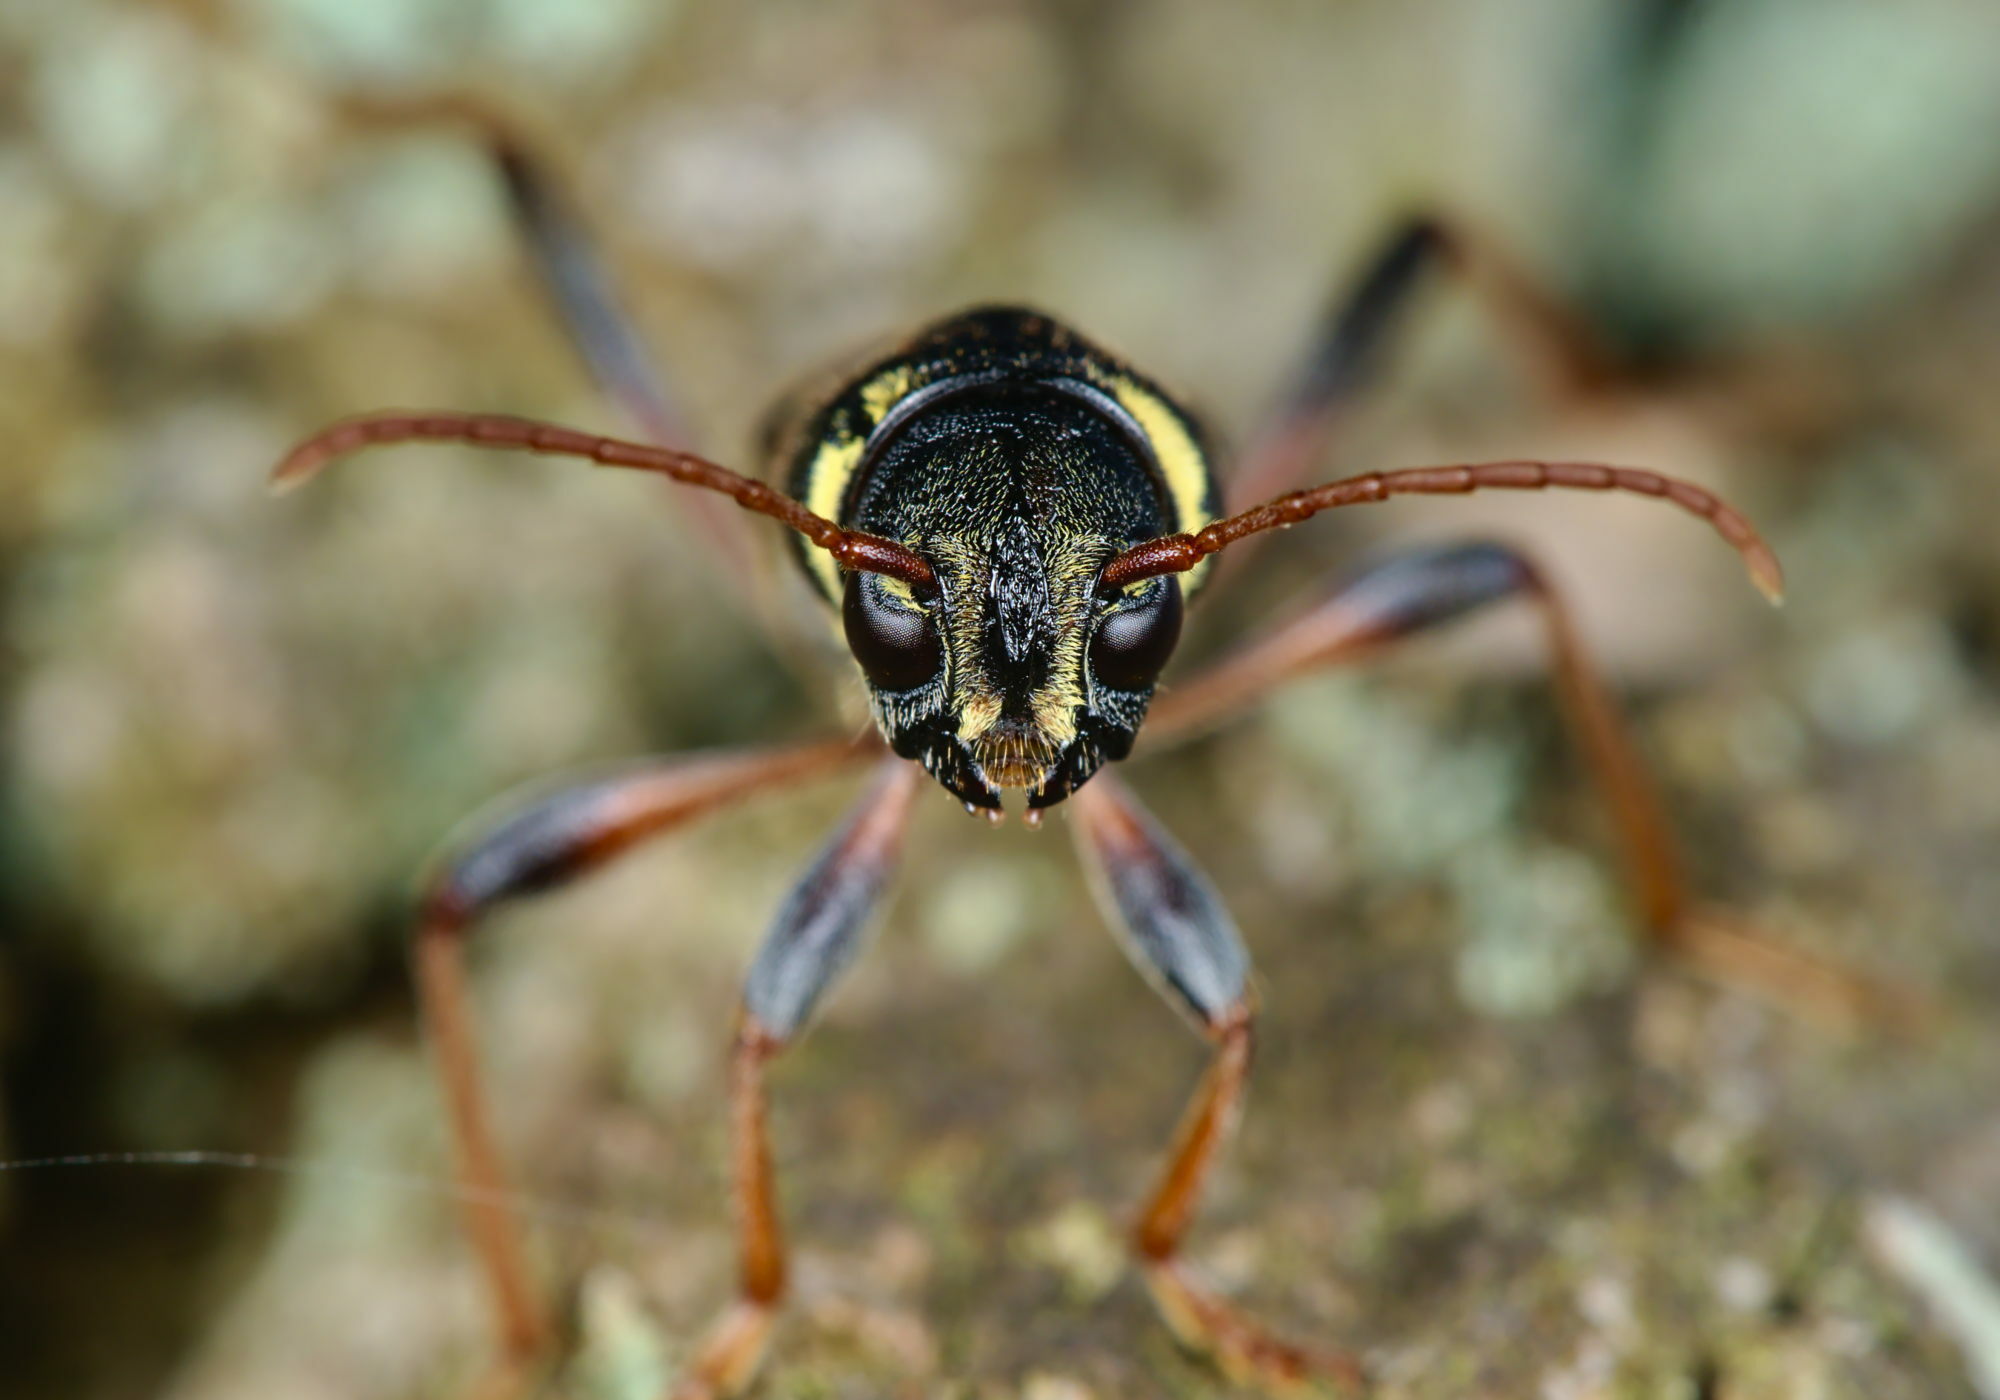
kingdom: Animalia
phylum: Arthropoda
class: Insecta
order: Coleoptera
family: Cerambycidae
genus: Xylotrechus
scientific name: Xylotrechus arvicola
